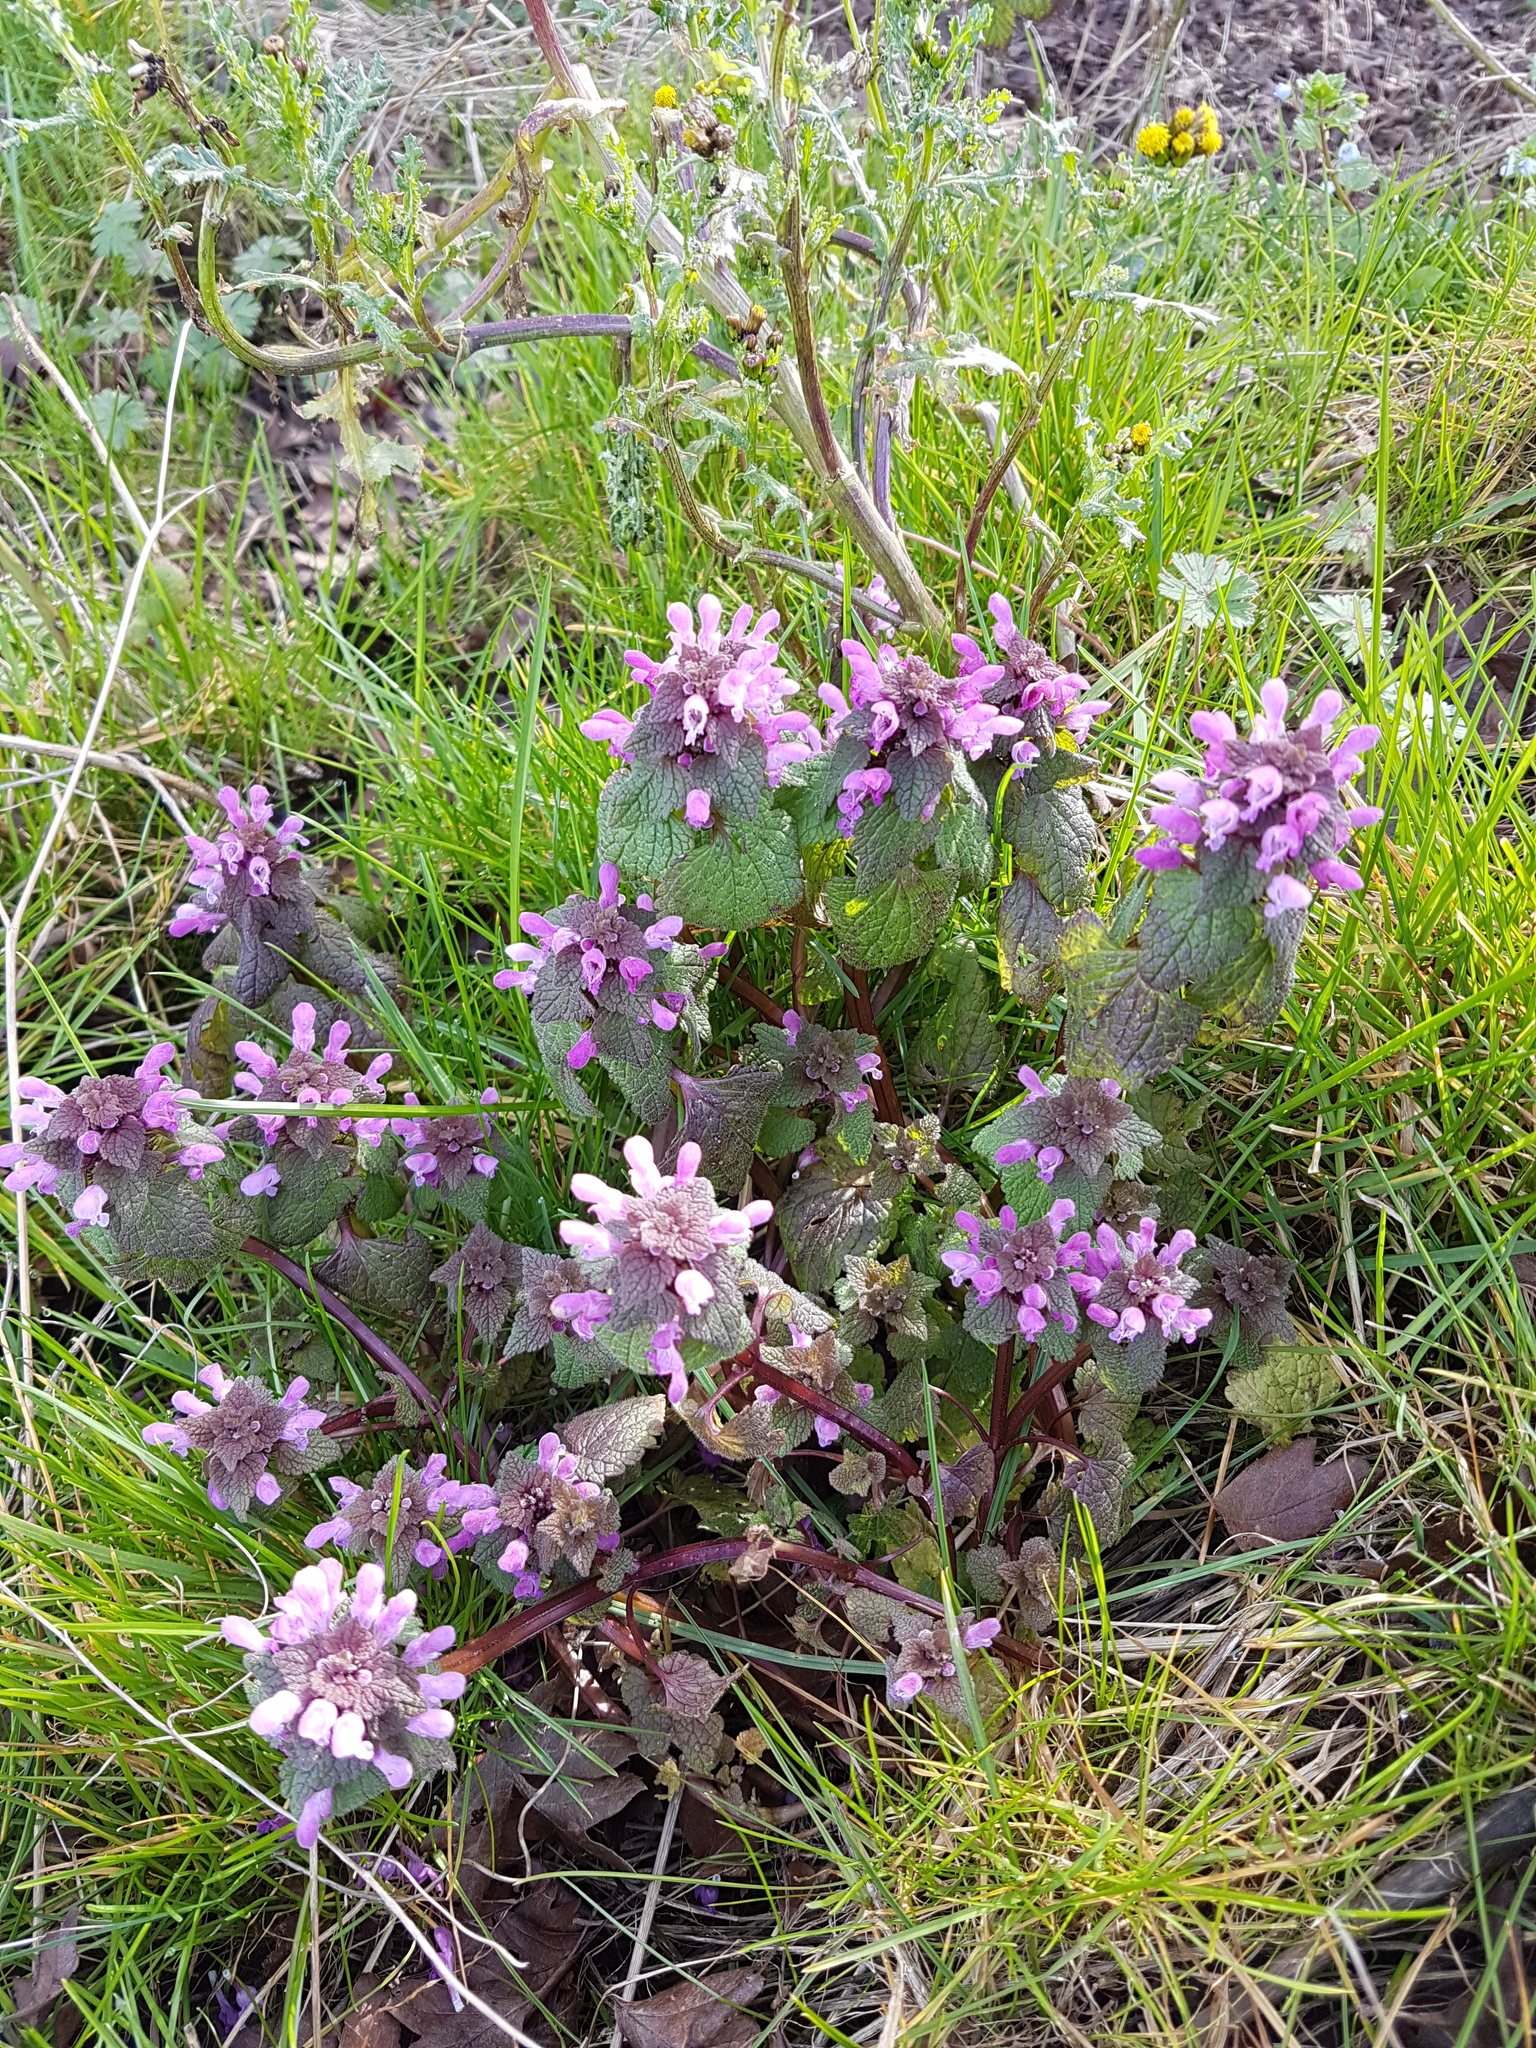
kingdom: Plantae
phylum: Tracheophyta
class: Magnoliopsida
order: Lamiales
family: Lamiaceae
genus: Lamium
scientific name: Lamium purpureum
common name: Red dead-nettle
